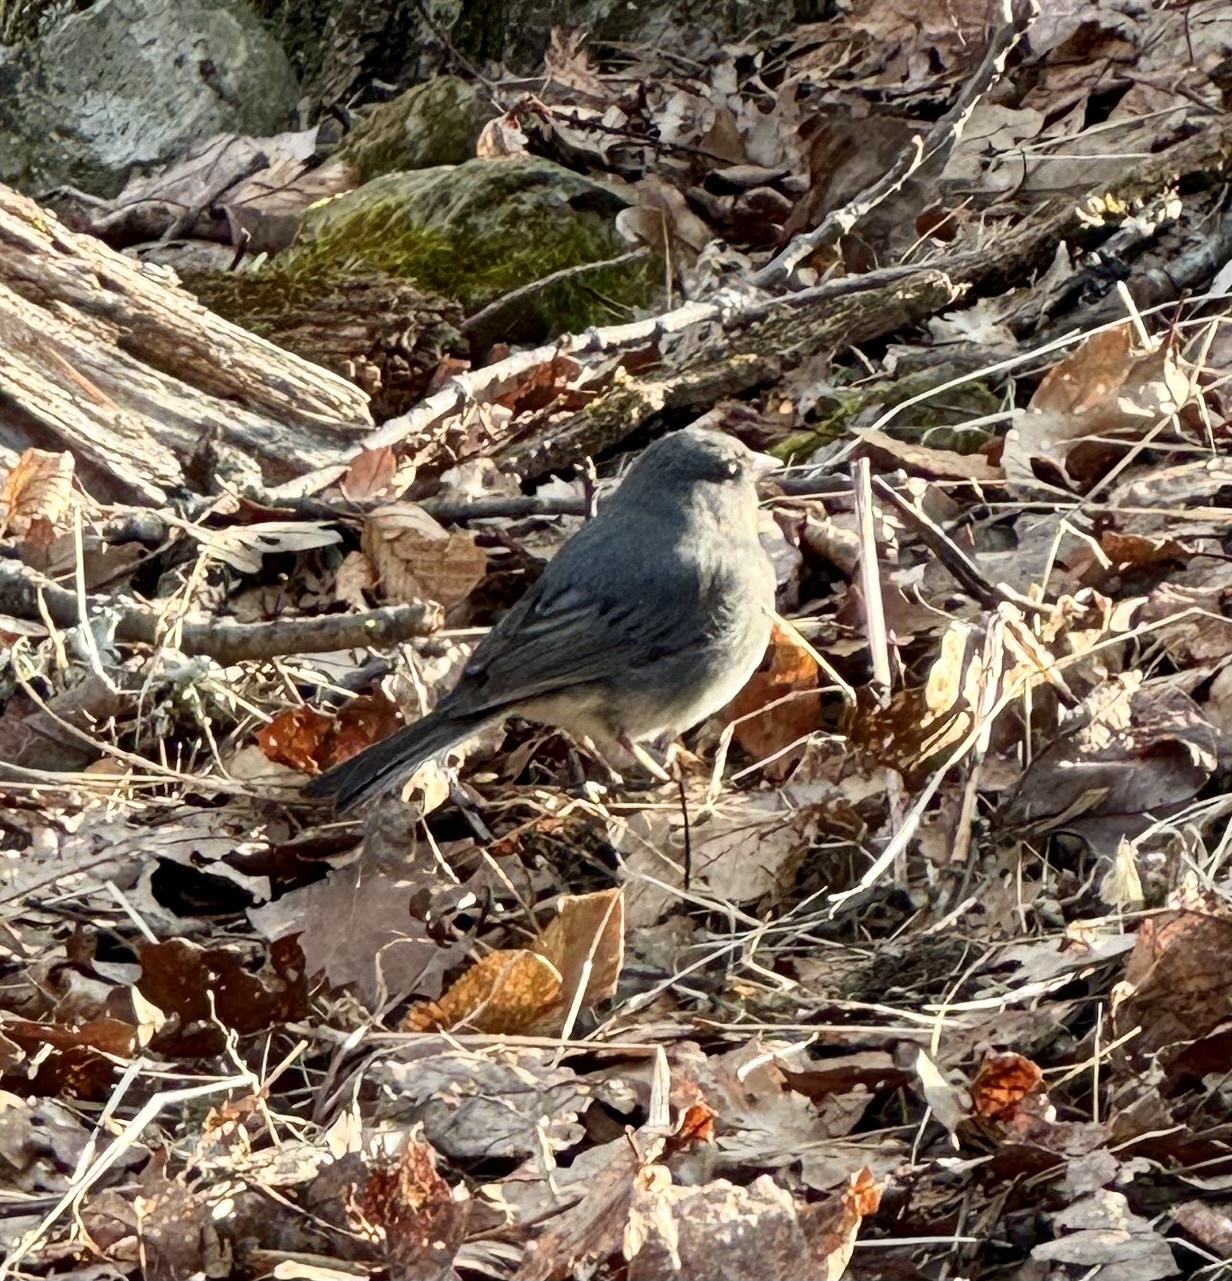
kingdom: Animalia
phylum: Chordata
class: Aves
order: Passeriformes
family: Passerellidae
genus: Junco
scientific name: Junco hyemalis
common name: Dark-eyed junco
